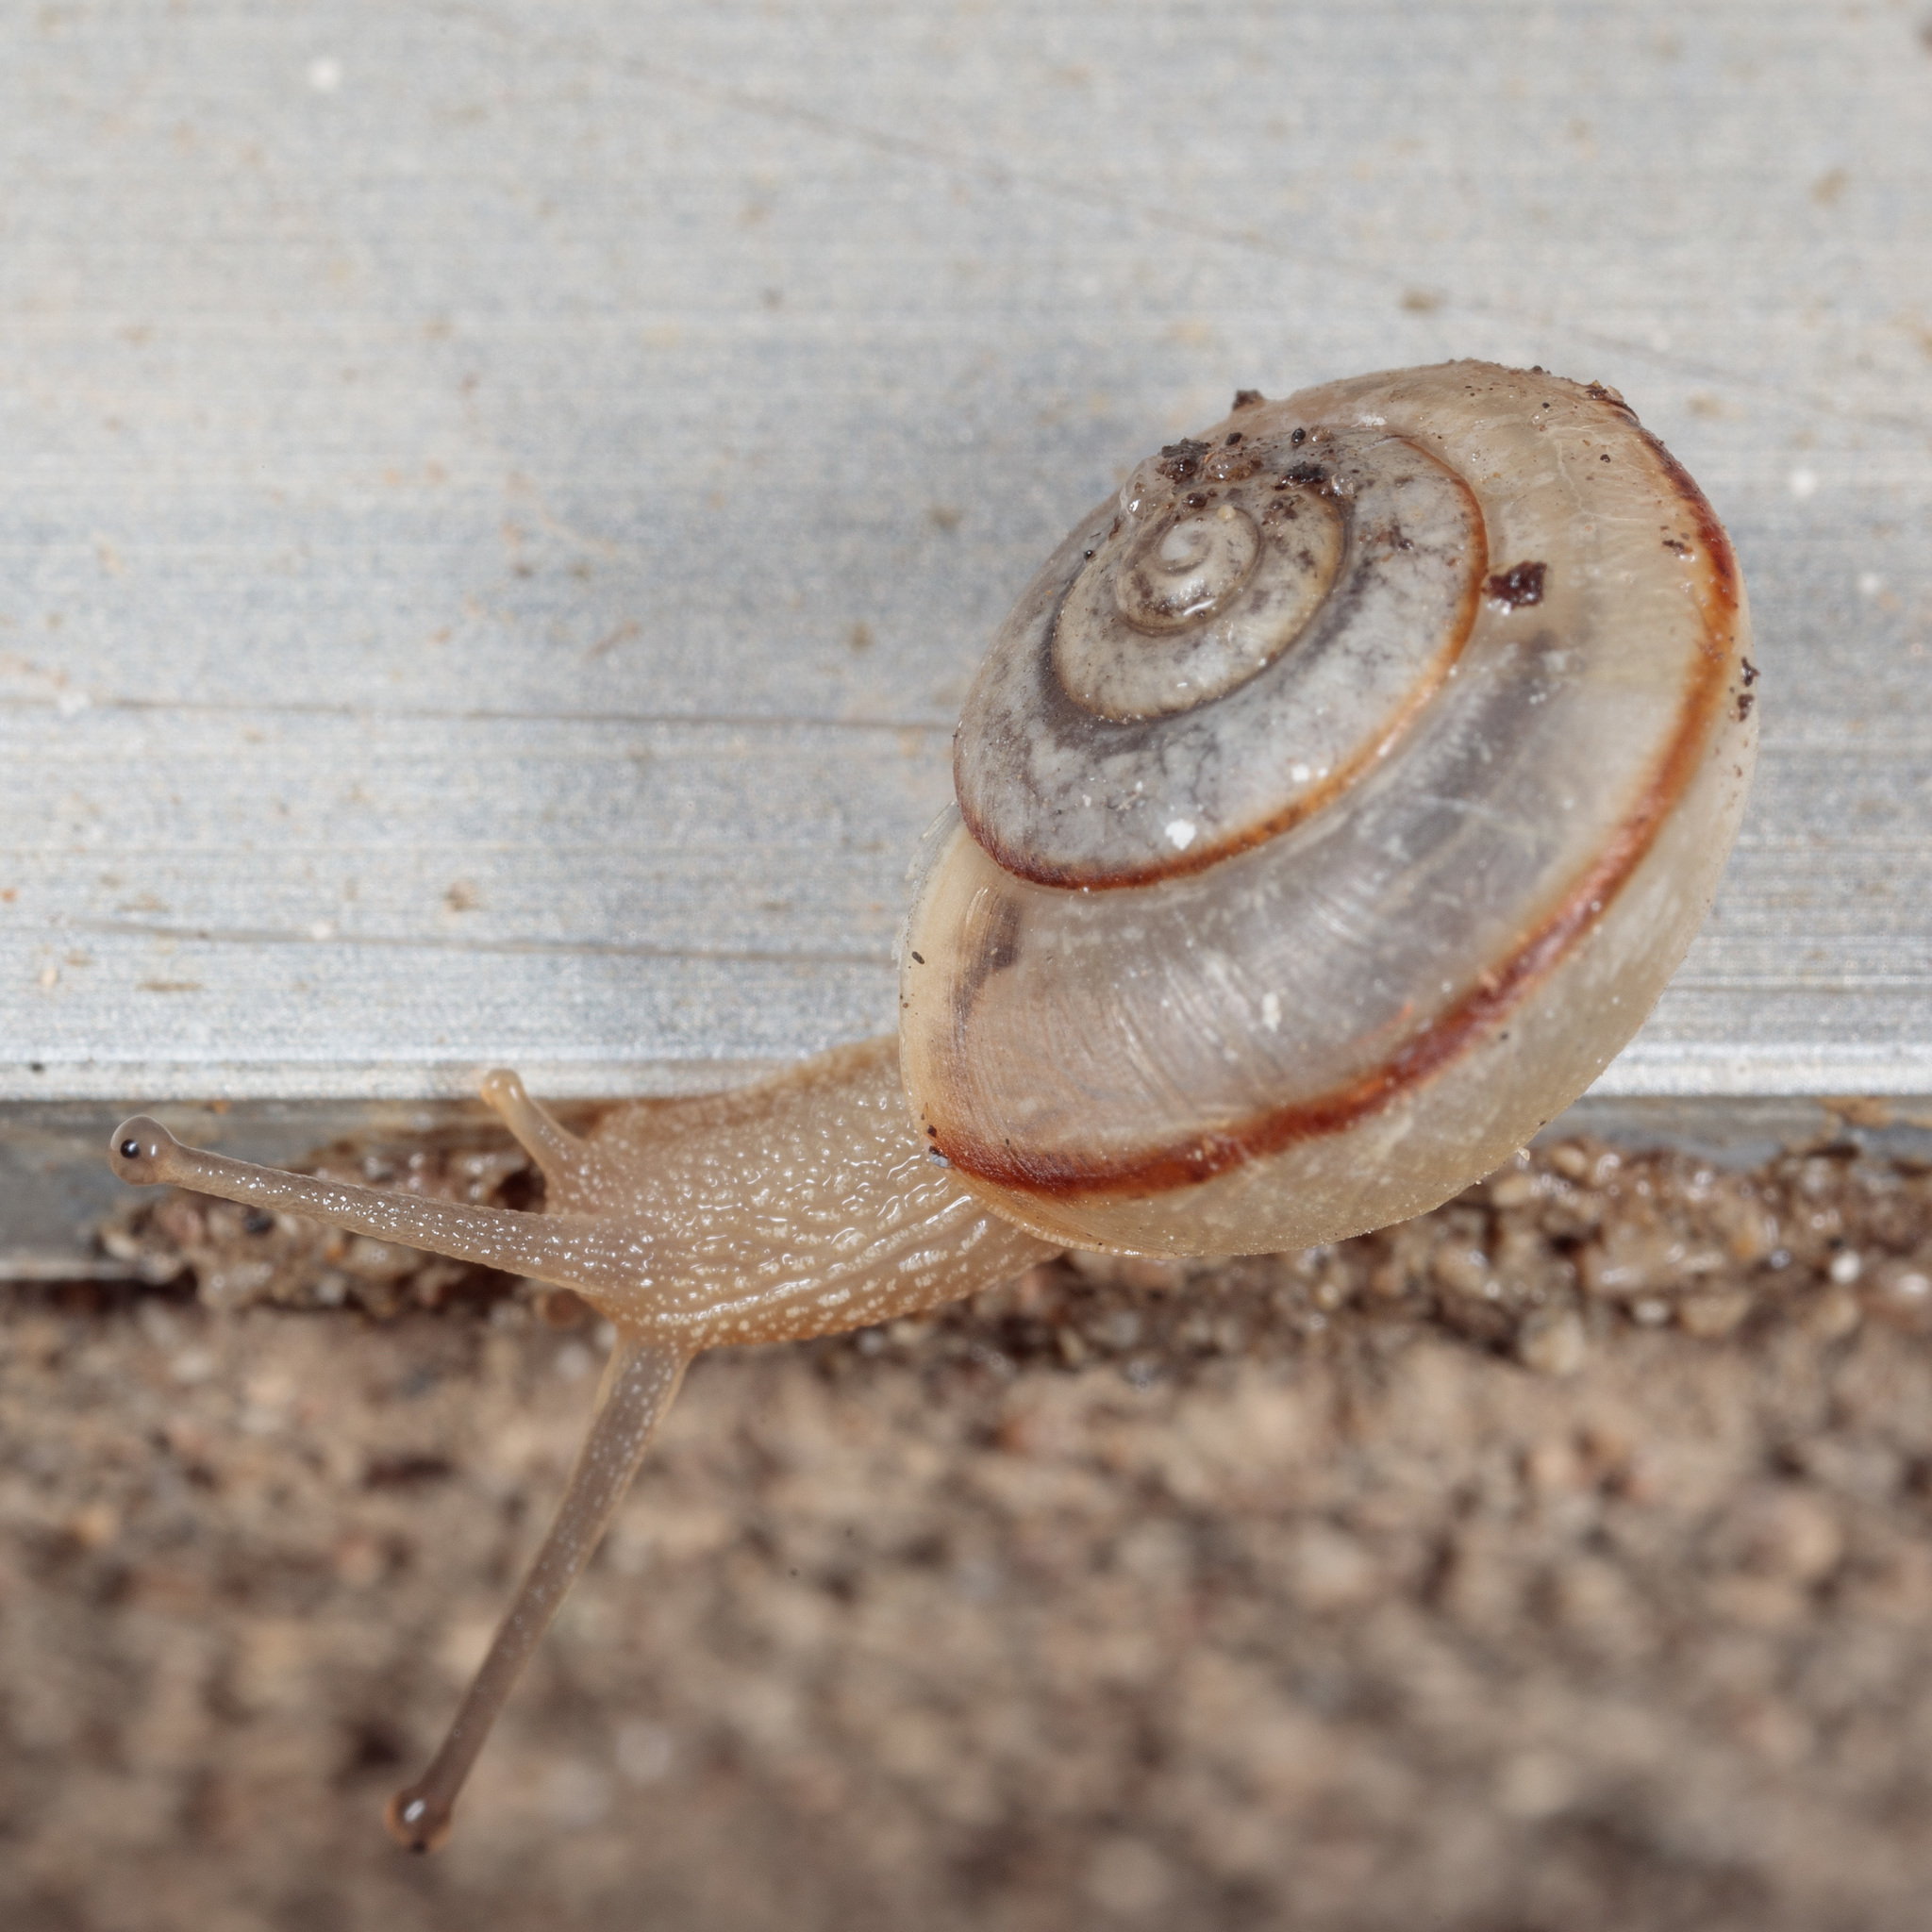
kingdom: Animalia
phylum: Mollusca
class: Gastropoda
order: Stylommatophora
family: Camaenidae
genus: Bradybaena
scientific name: Bradybaena similaris
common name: Asian trampsnail
